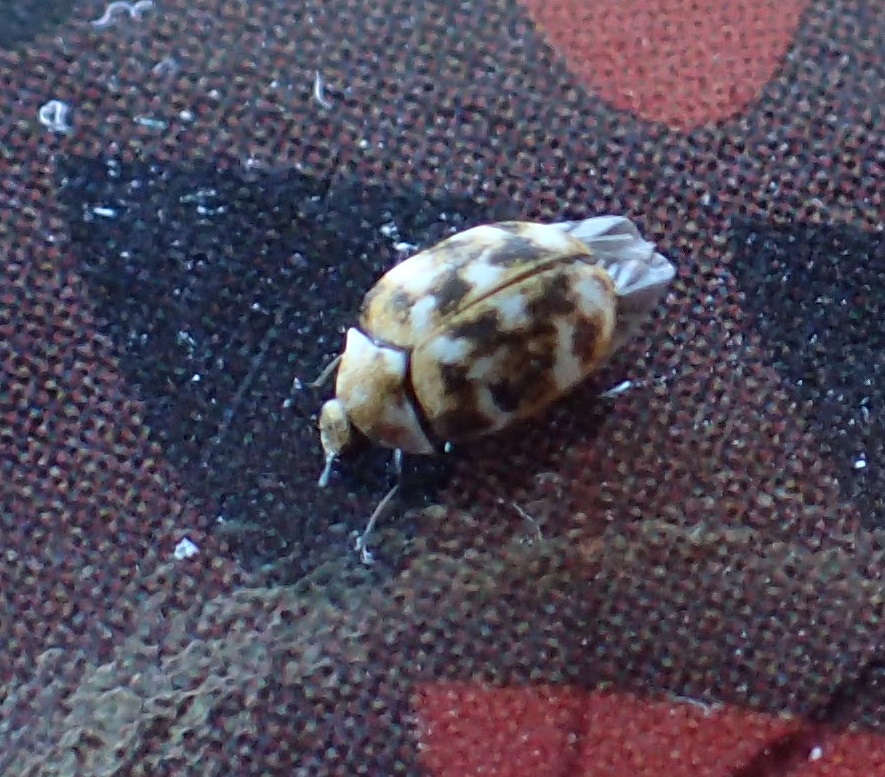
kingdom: Animalia
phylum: Arthropoda
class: Insecta
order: Coleoptera
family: Dermestidae
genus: Anthrenus
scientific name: Anthrenus verbasci
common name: Varied carpet beetle
